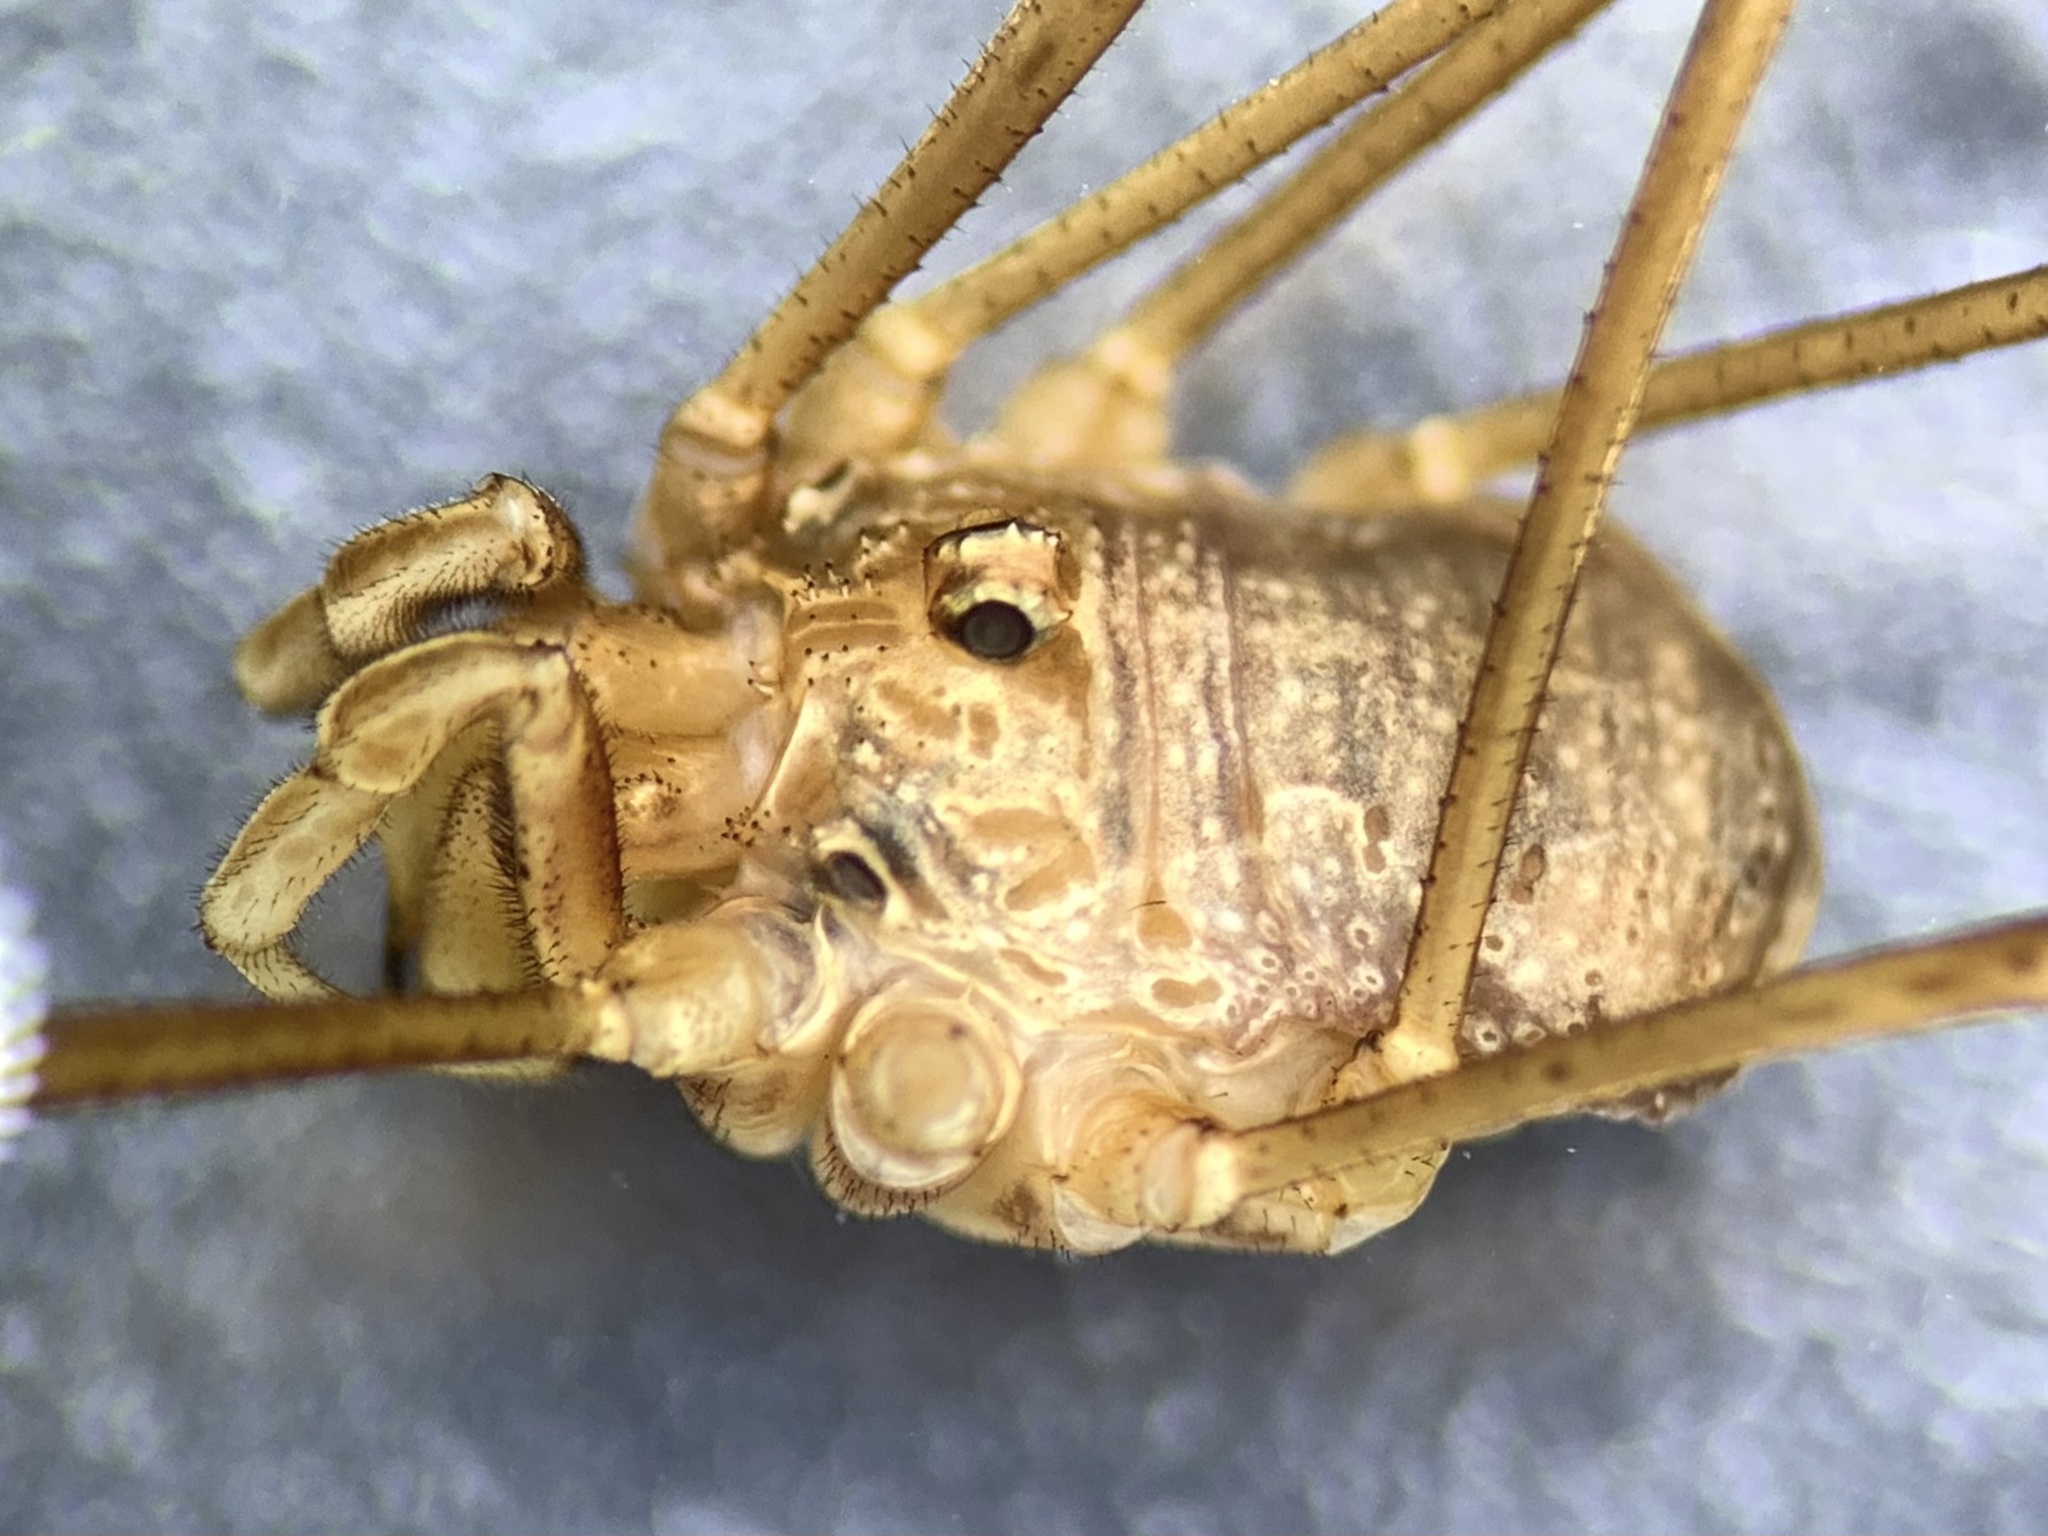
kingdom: Animalia
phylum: Arthropoda
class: Arachnida
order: Opiliones
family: Phalangiidae
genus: Dasylobus
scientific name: Dasylobus graniferus
